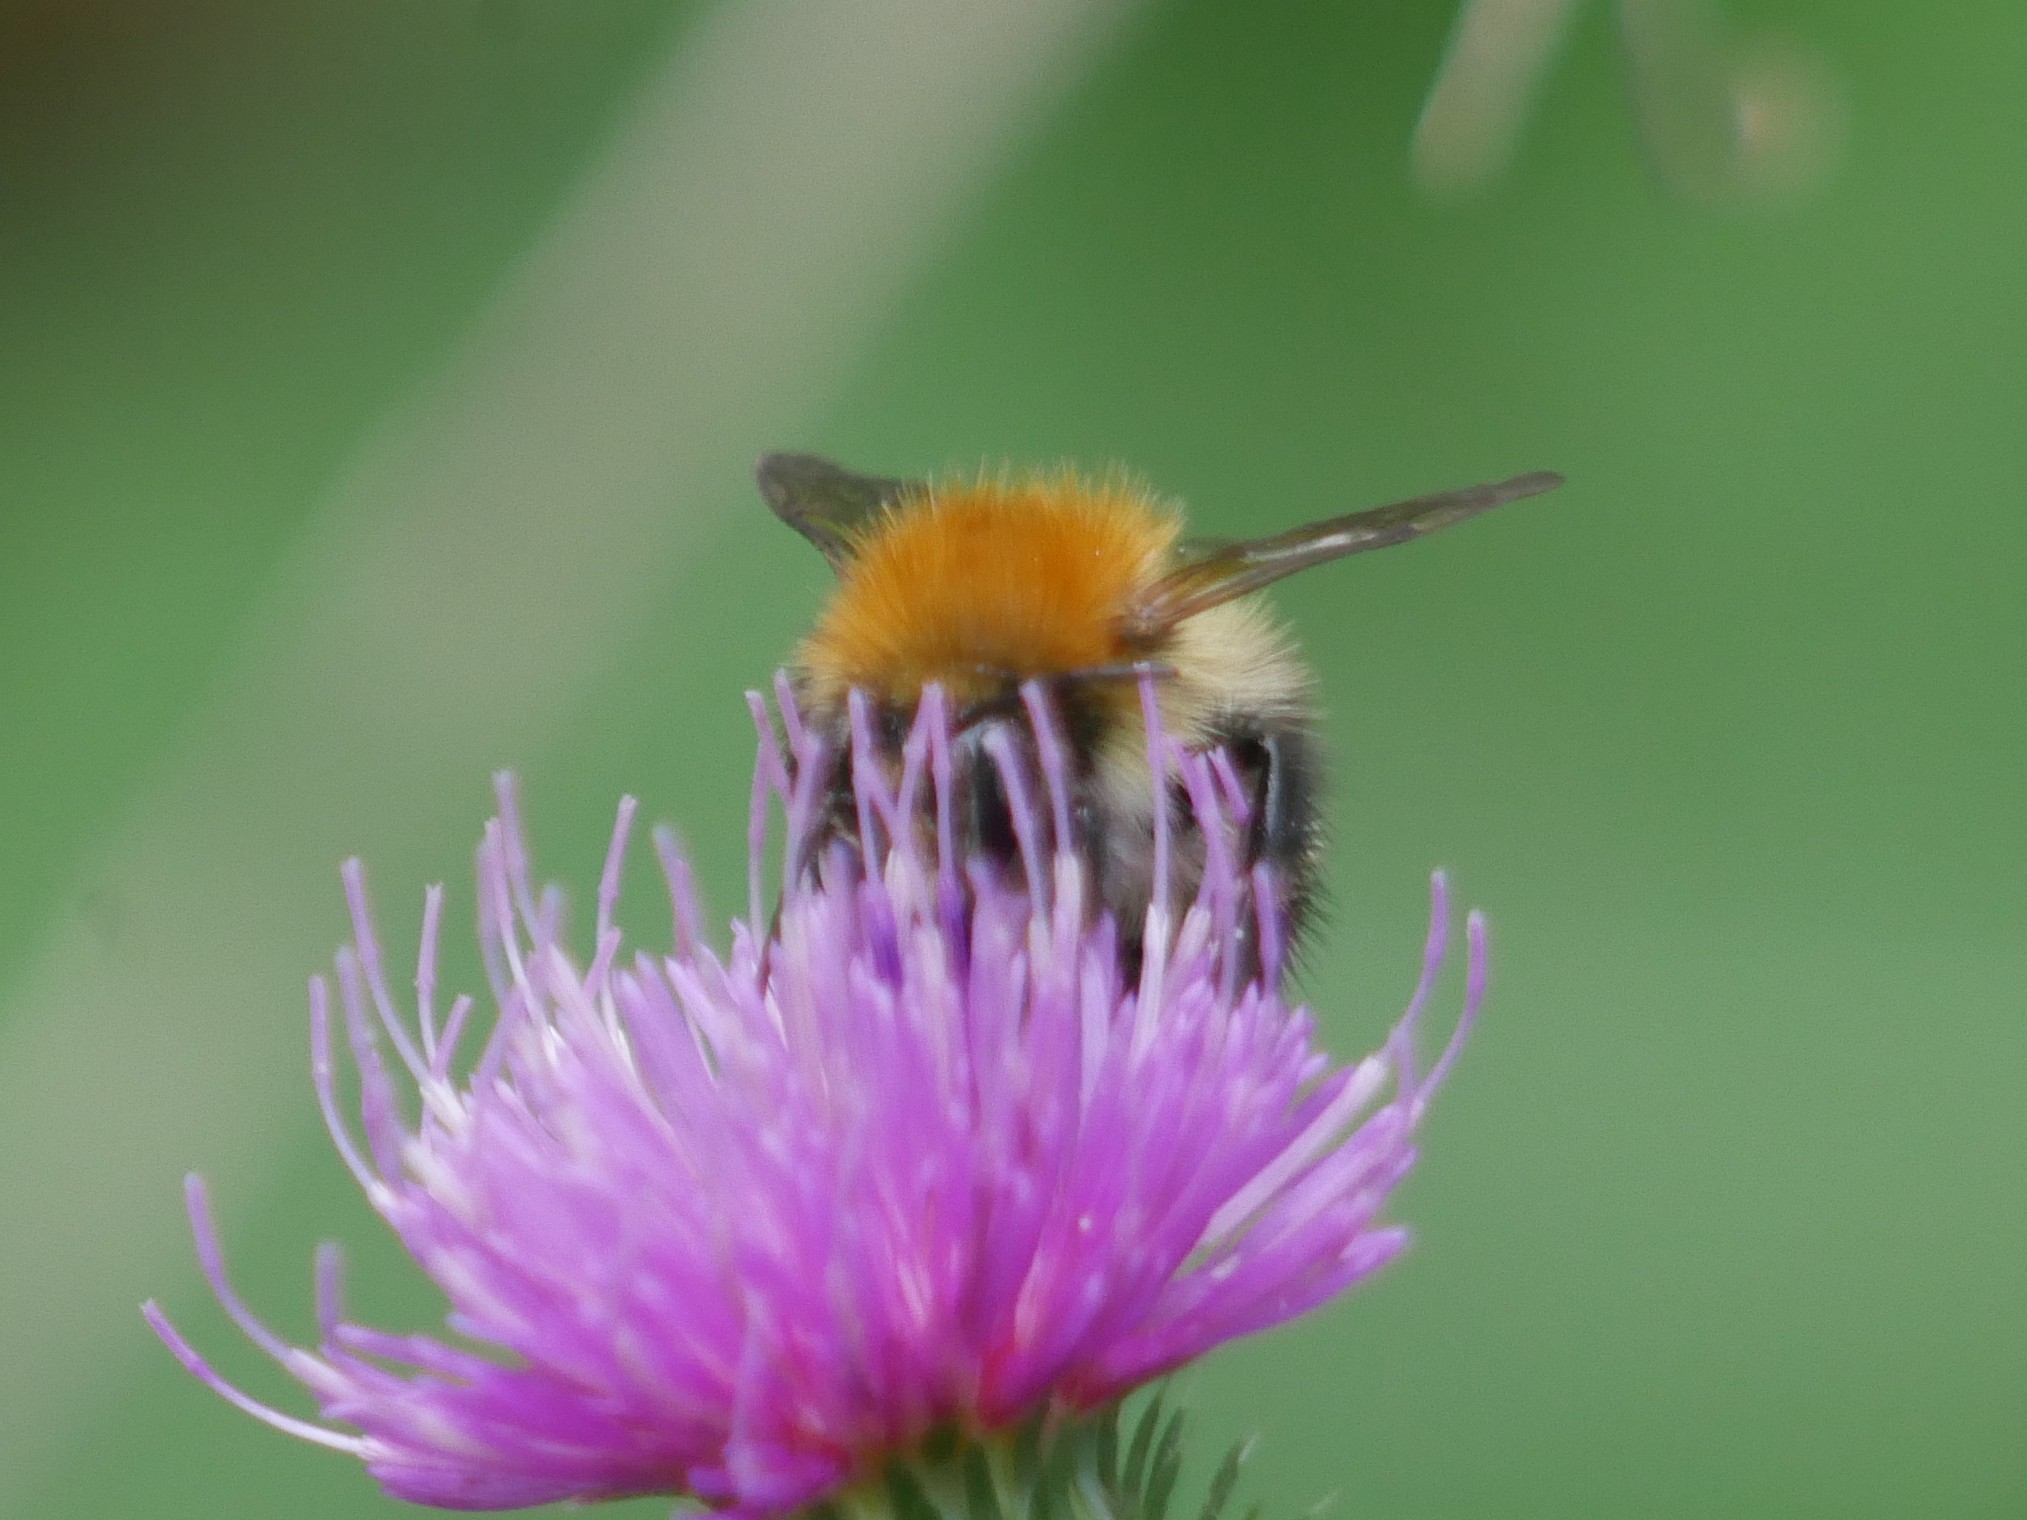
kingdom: Animalia
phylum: Arthropoda
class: Insecta
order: Hymenoptera
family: Apidae
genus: Bombus
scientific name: Bombus pascuorum
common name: Common carder bee
